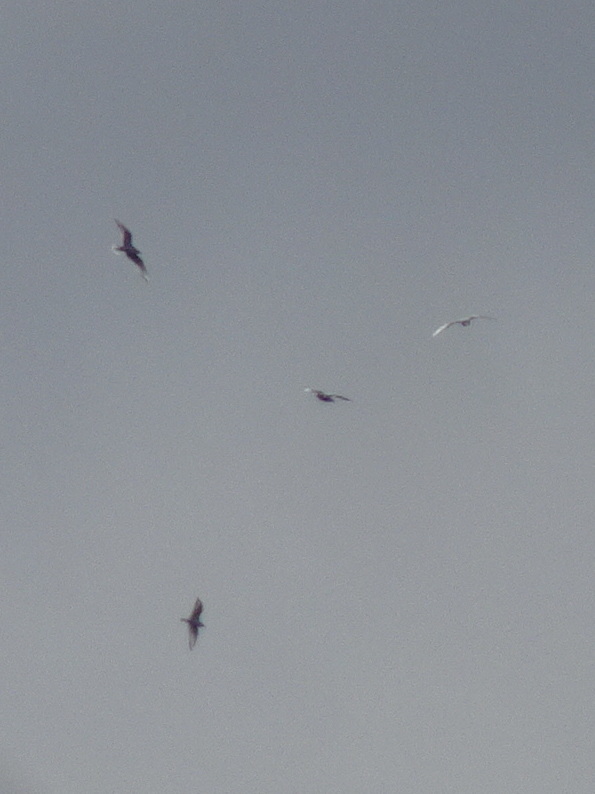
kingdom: Animalia
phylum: Chordata
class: Aves
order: Charadriiformes
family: Laridae
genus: Chroicocephalus
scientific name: Chroicocephalus philadelphia
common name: Bonaparte's gull
